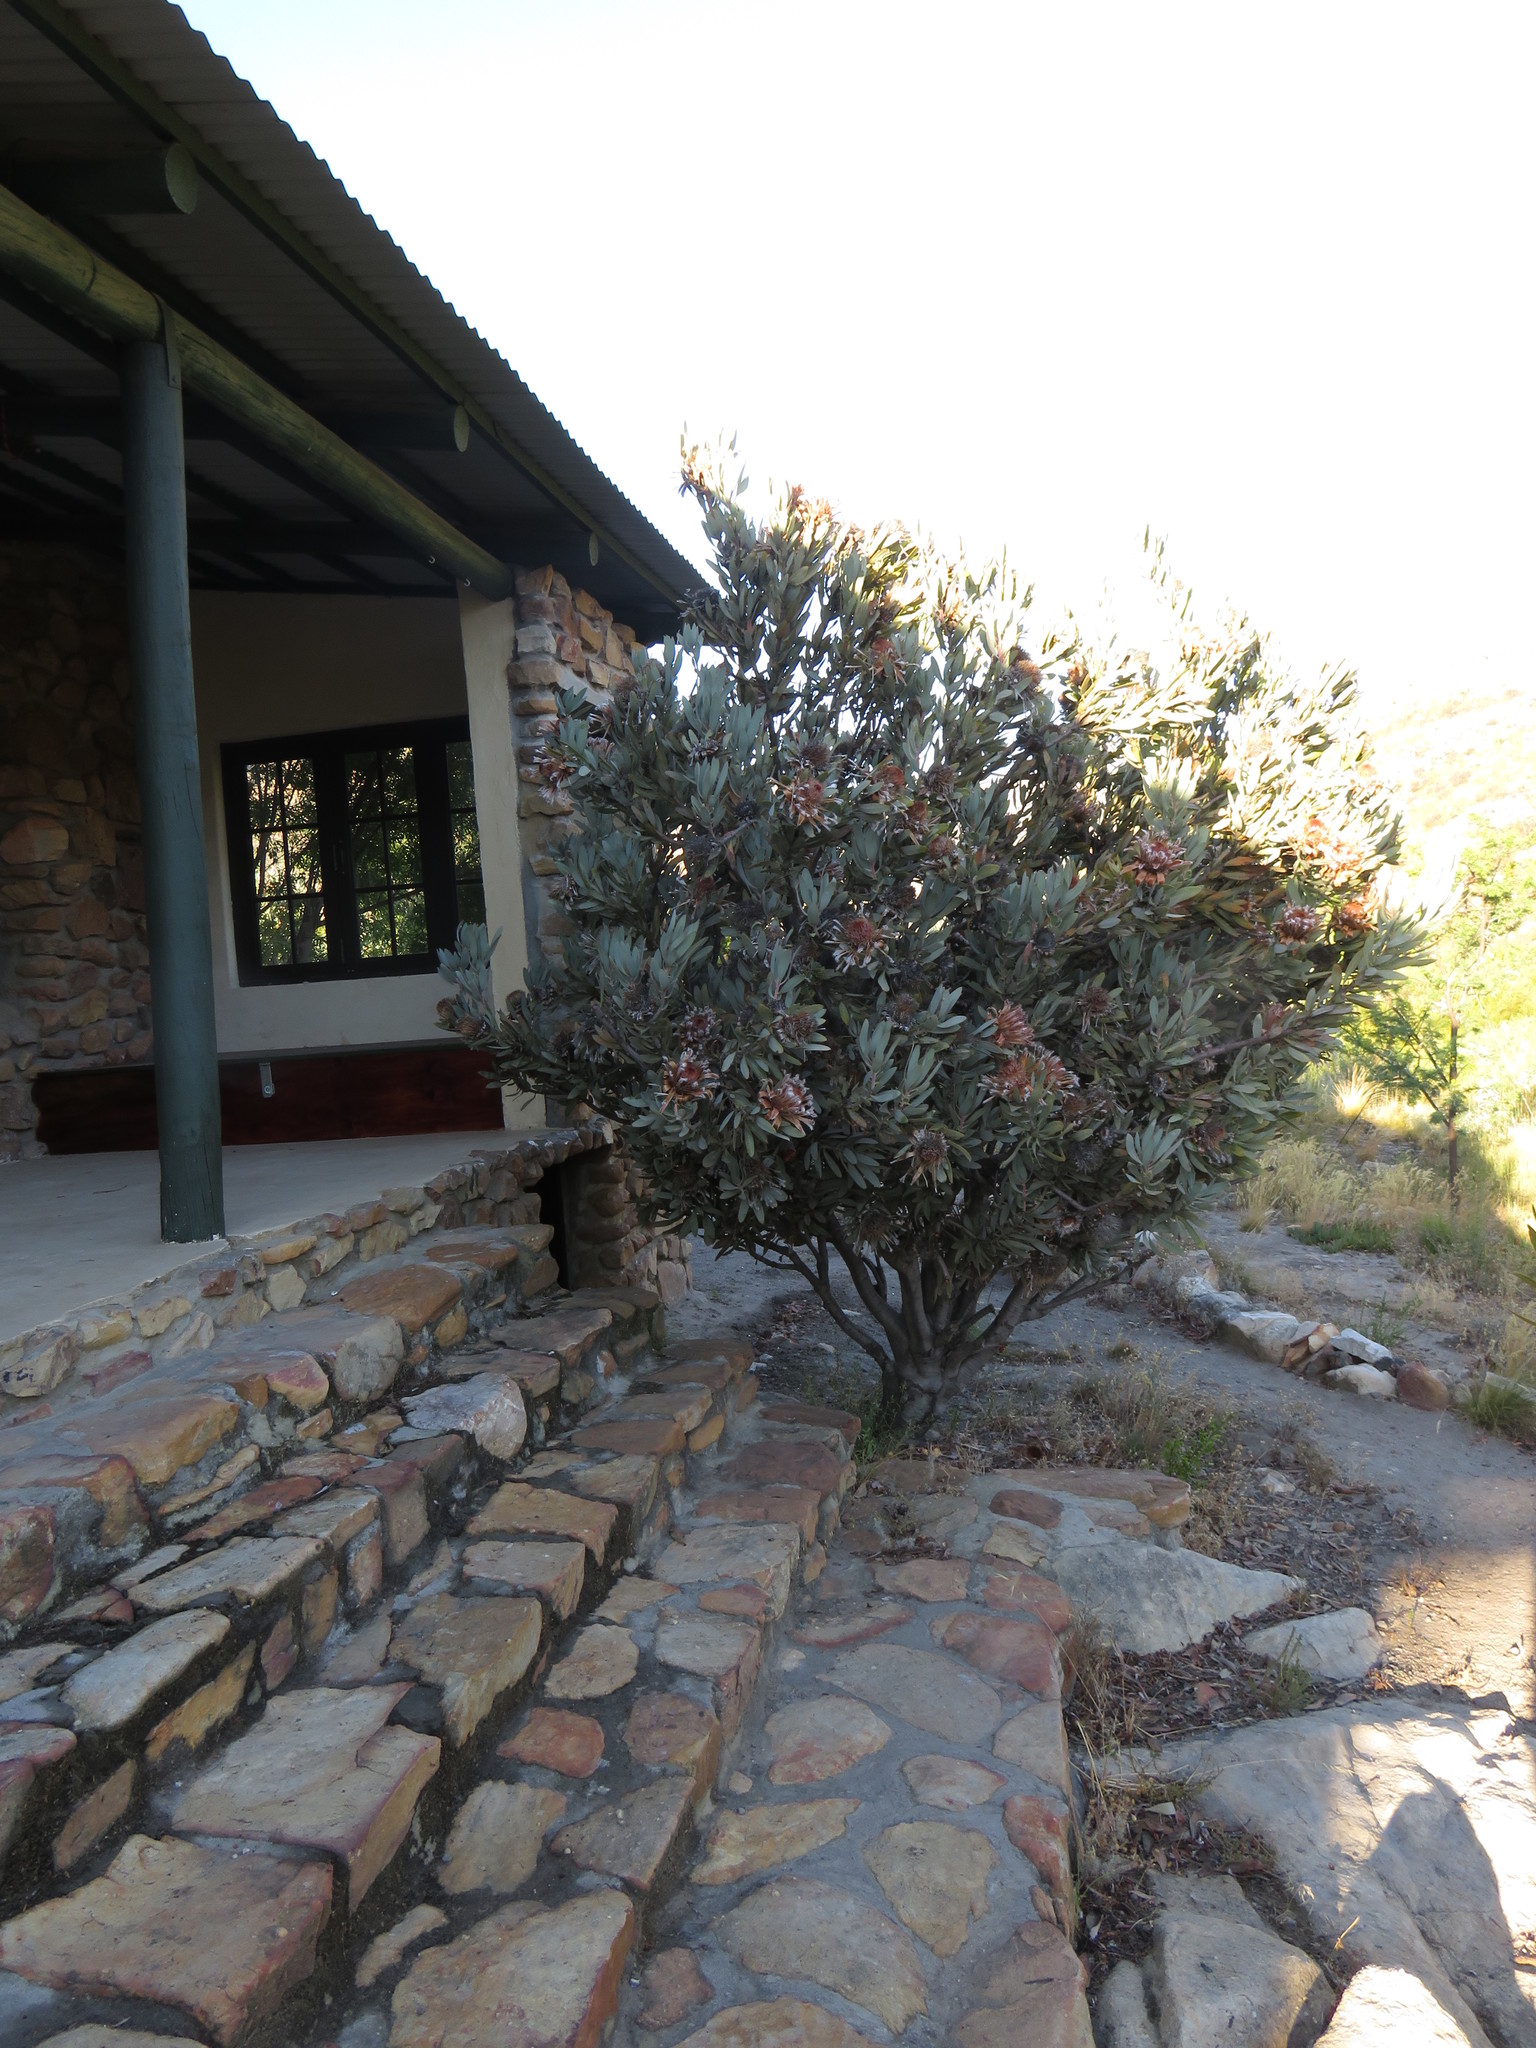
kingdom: Plantae
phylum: Tracheophyta
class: Magnoliopsida
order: Proteales
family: Proteaceae
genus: Protea
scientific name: Protea laurifolia
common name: Grey-leaf sugarbsh
